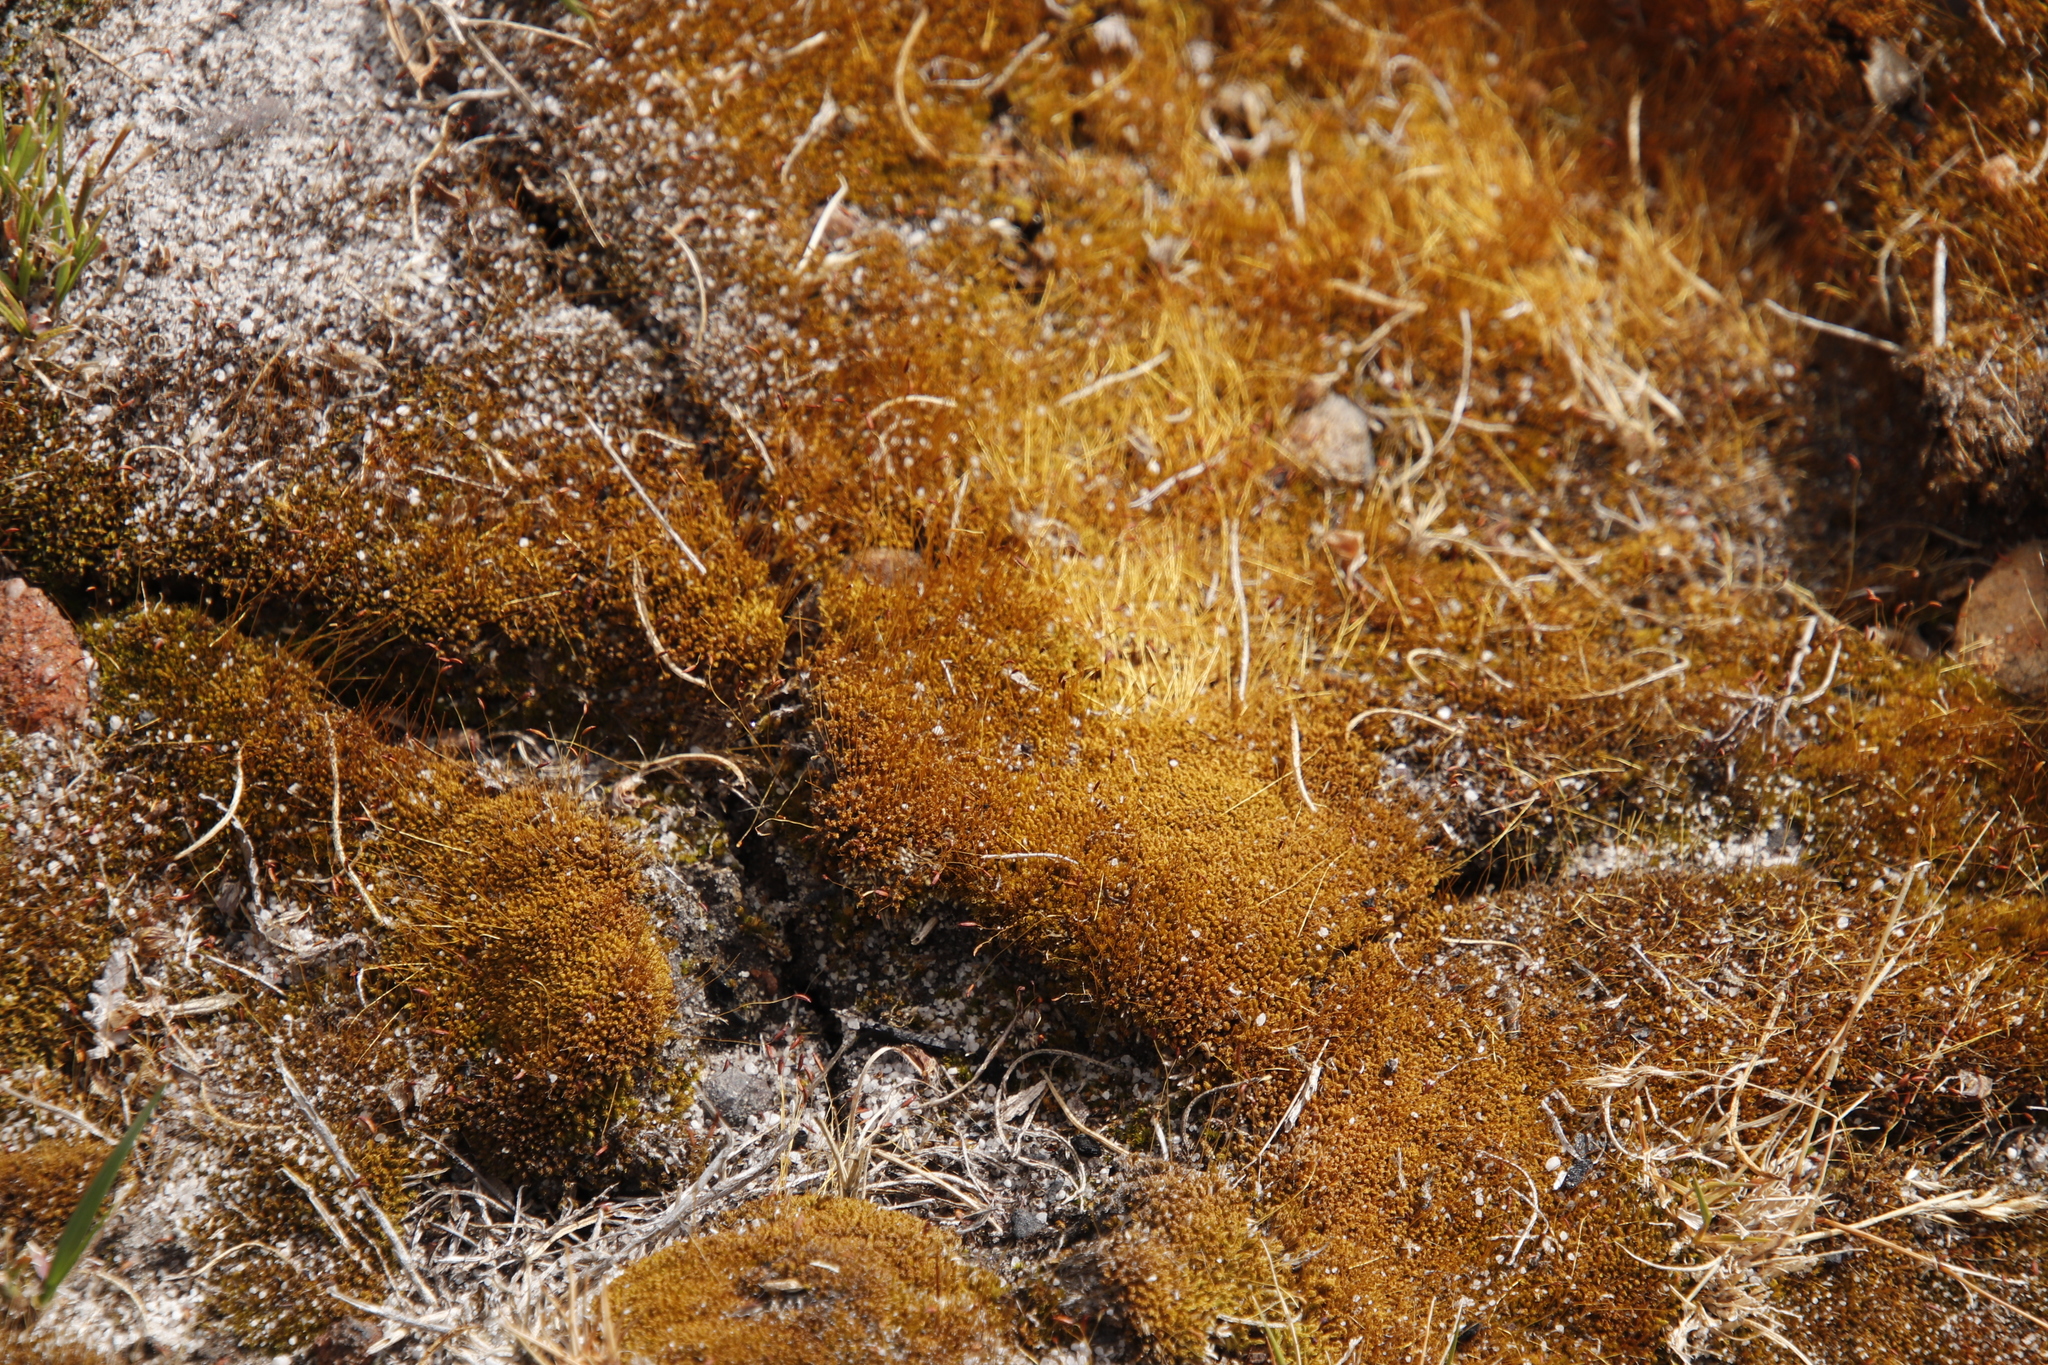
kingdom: Plantae
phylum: Bryophyta
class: Bryopsida
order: Dicranales
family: Ditrichaceae
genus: Ceratodon
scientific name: Ceratodon purpureus
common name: Redshank
